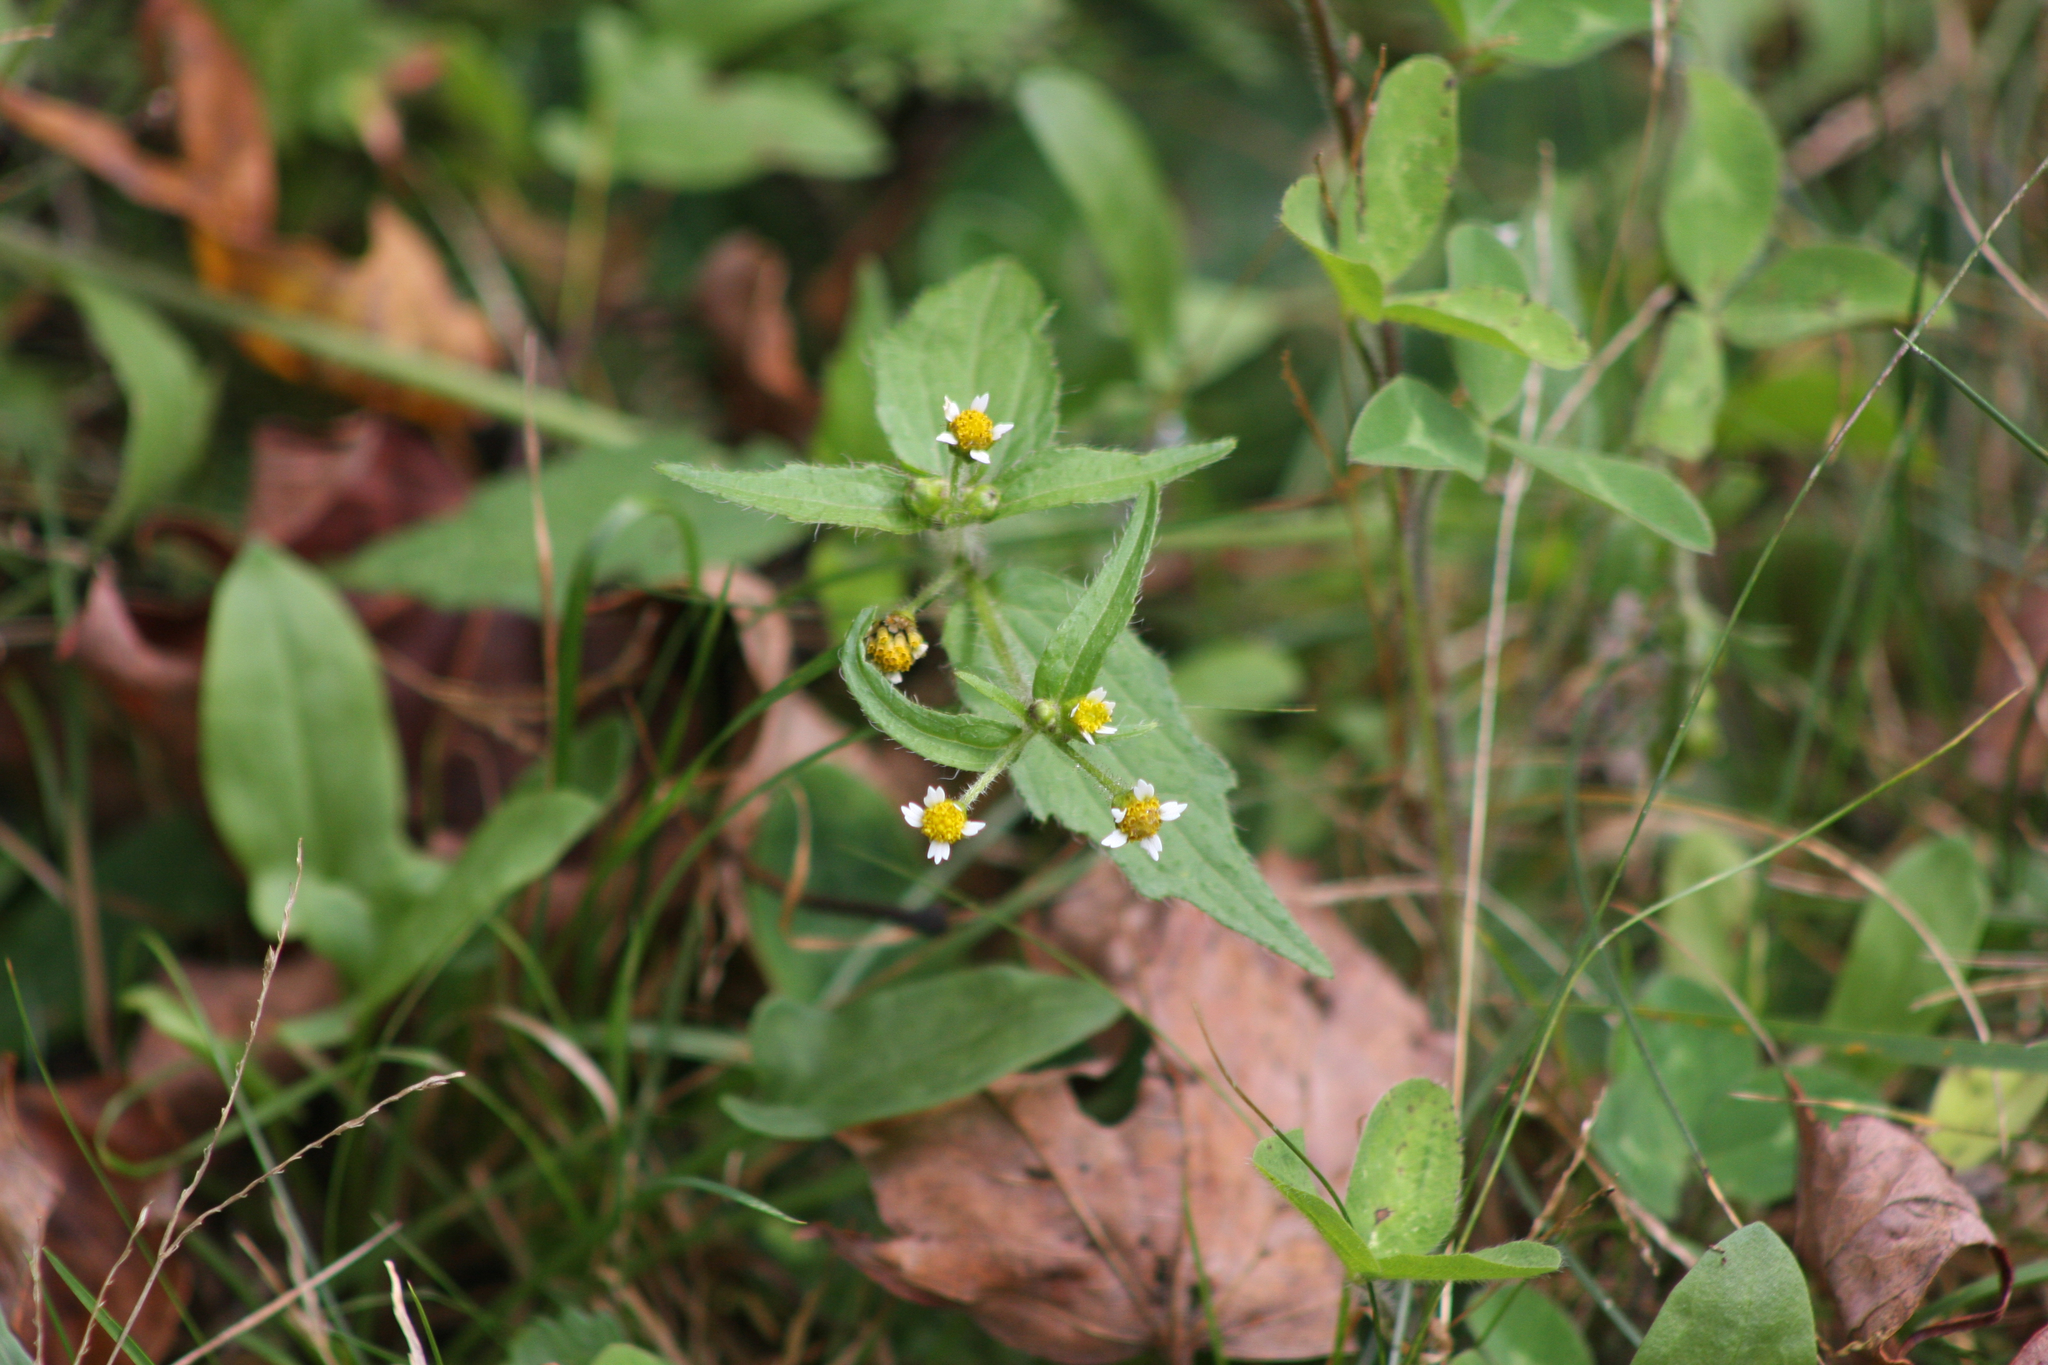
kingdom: Plantae
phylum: Tracheophyta
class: Magnoliopsida
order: Asterales
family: Asteraceae
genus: Galinsoga
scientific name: Galinsoga quadriradiata
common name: Shaggy soldier
